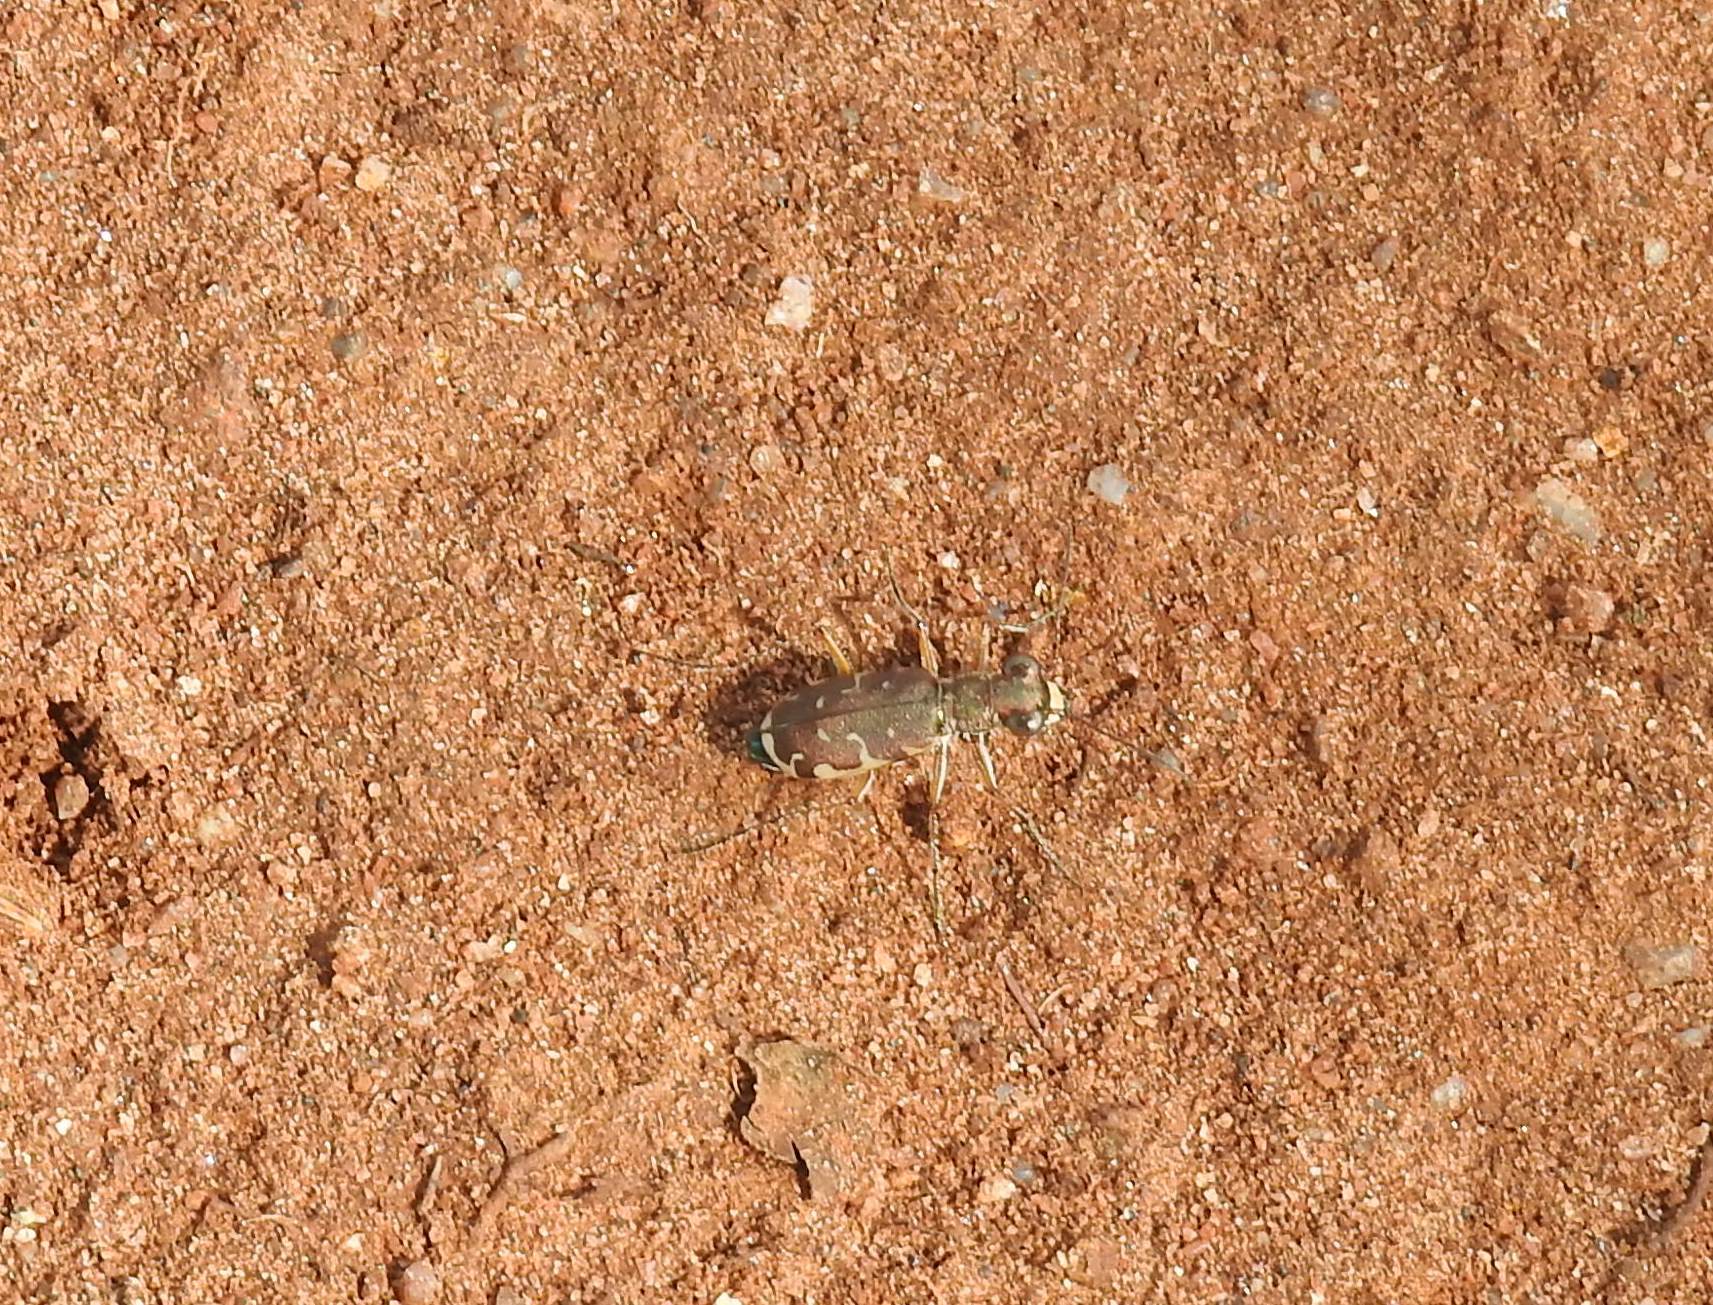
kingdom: Animalia
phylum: Arthropoda
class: Insecta
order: Coleoptera
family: Carabidae
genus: Myriochila
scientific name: Myriochila fastidiosa
